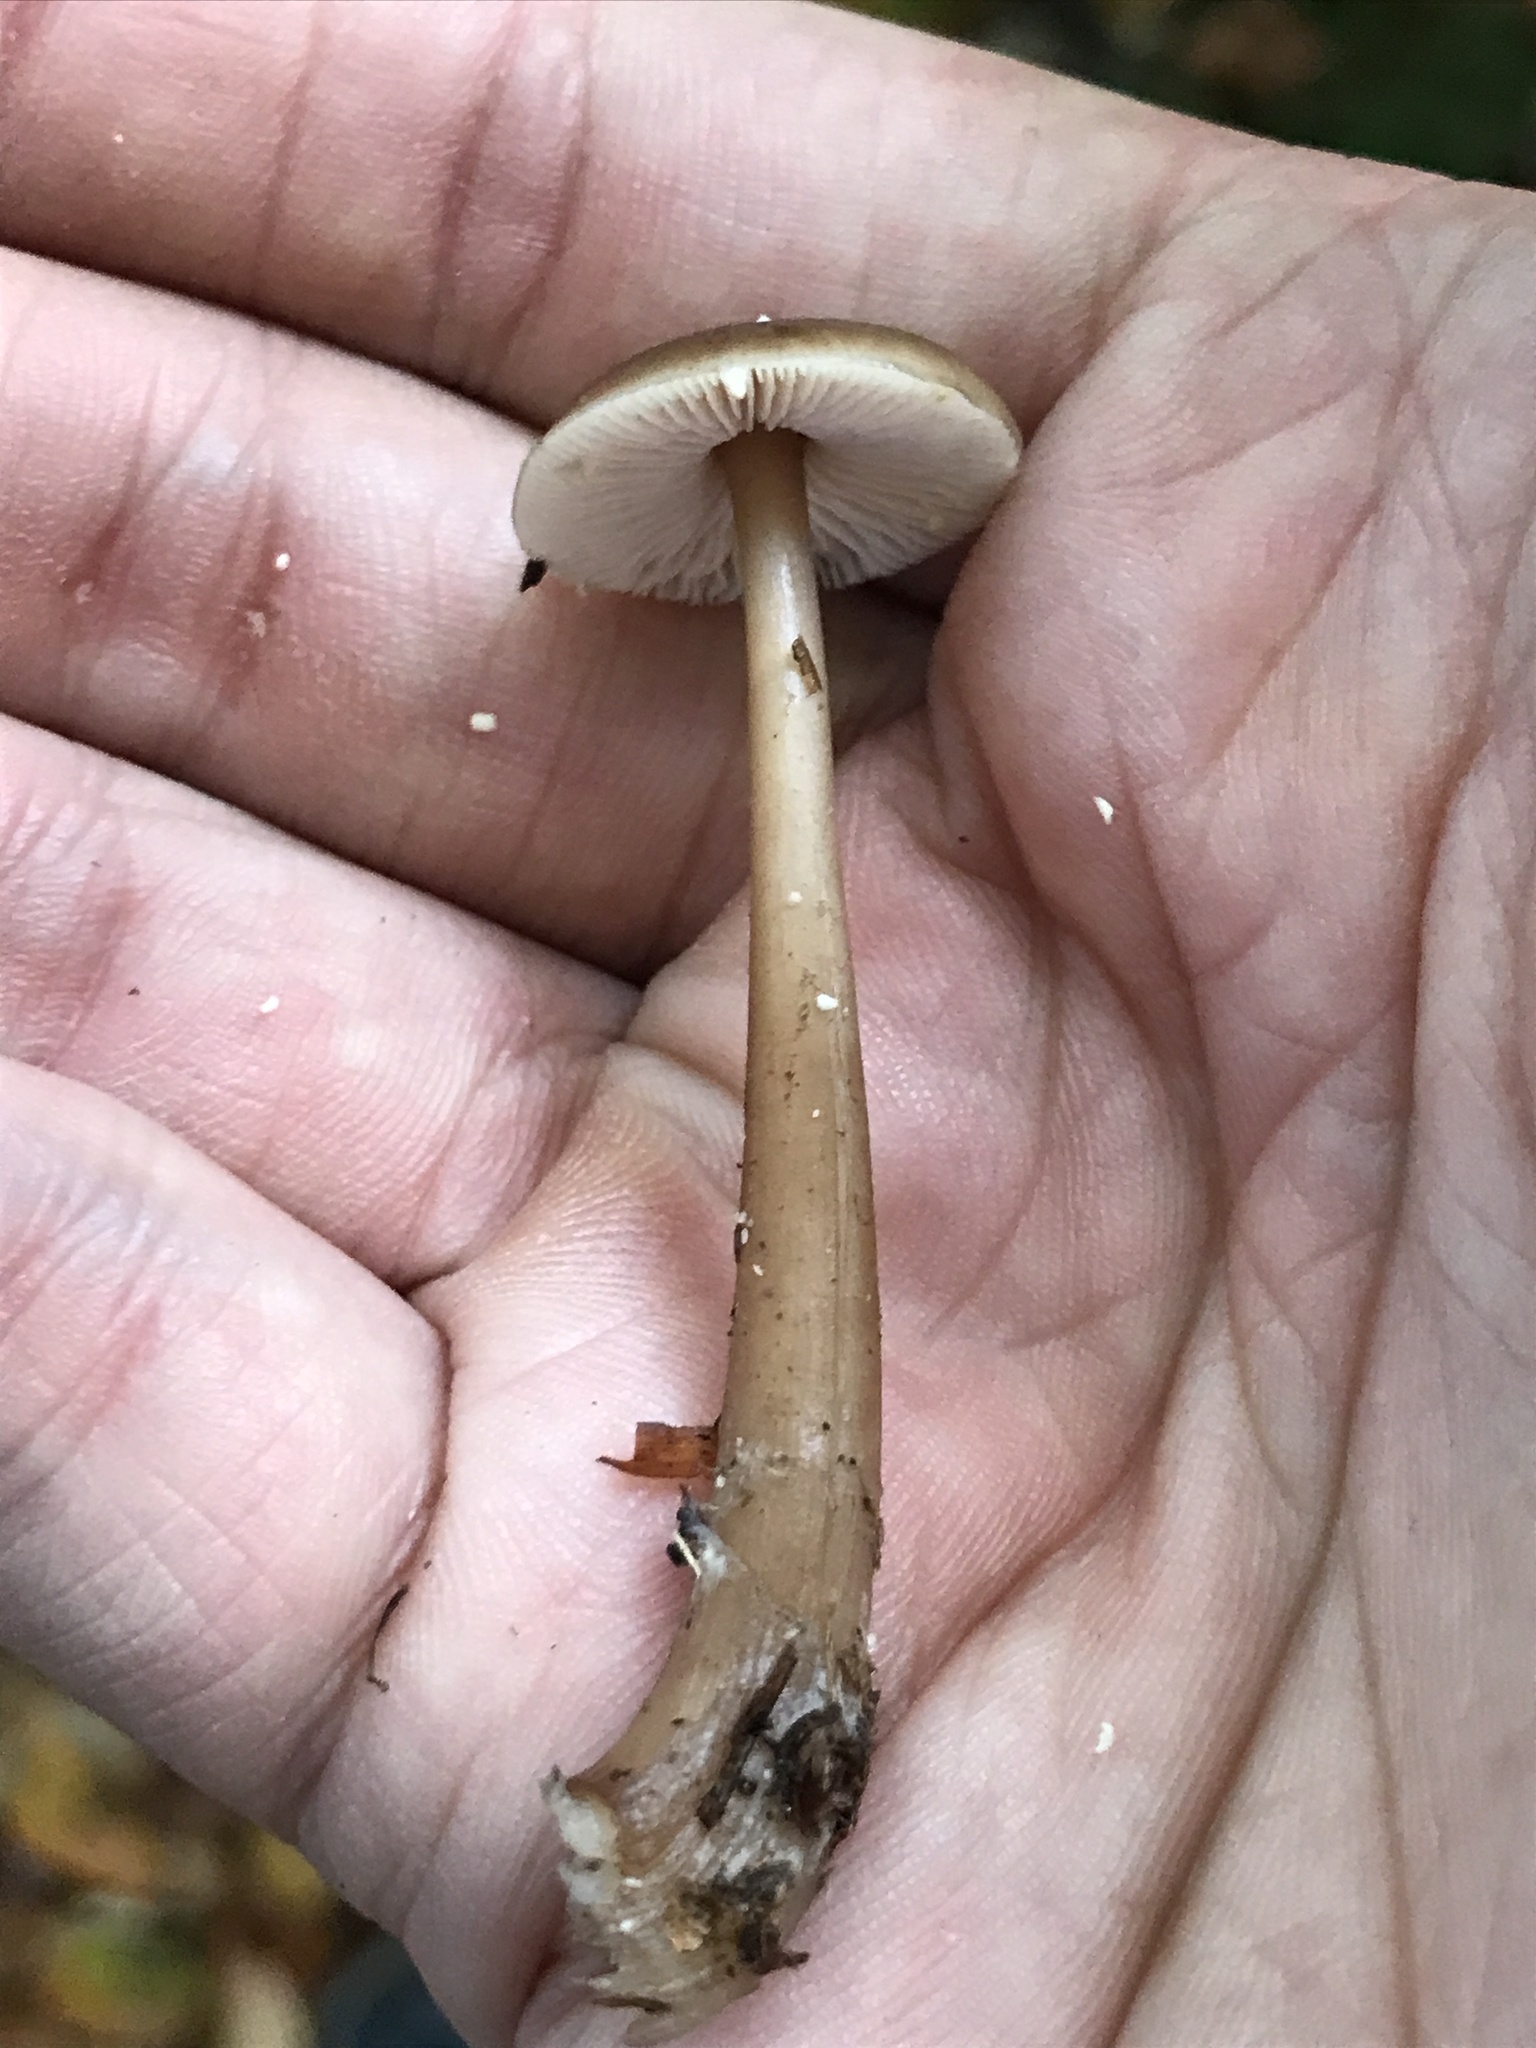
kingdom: Fungi
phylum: Basidiomycota
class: Agaricomycetes
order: Agaricales
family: Omphalotaceae
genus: Rhodocollybia
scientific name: Rhodocollybia butyracea
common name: Butter cap
